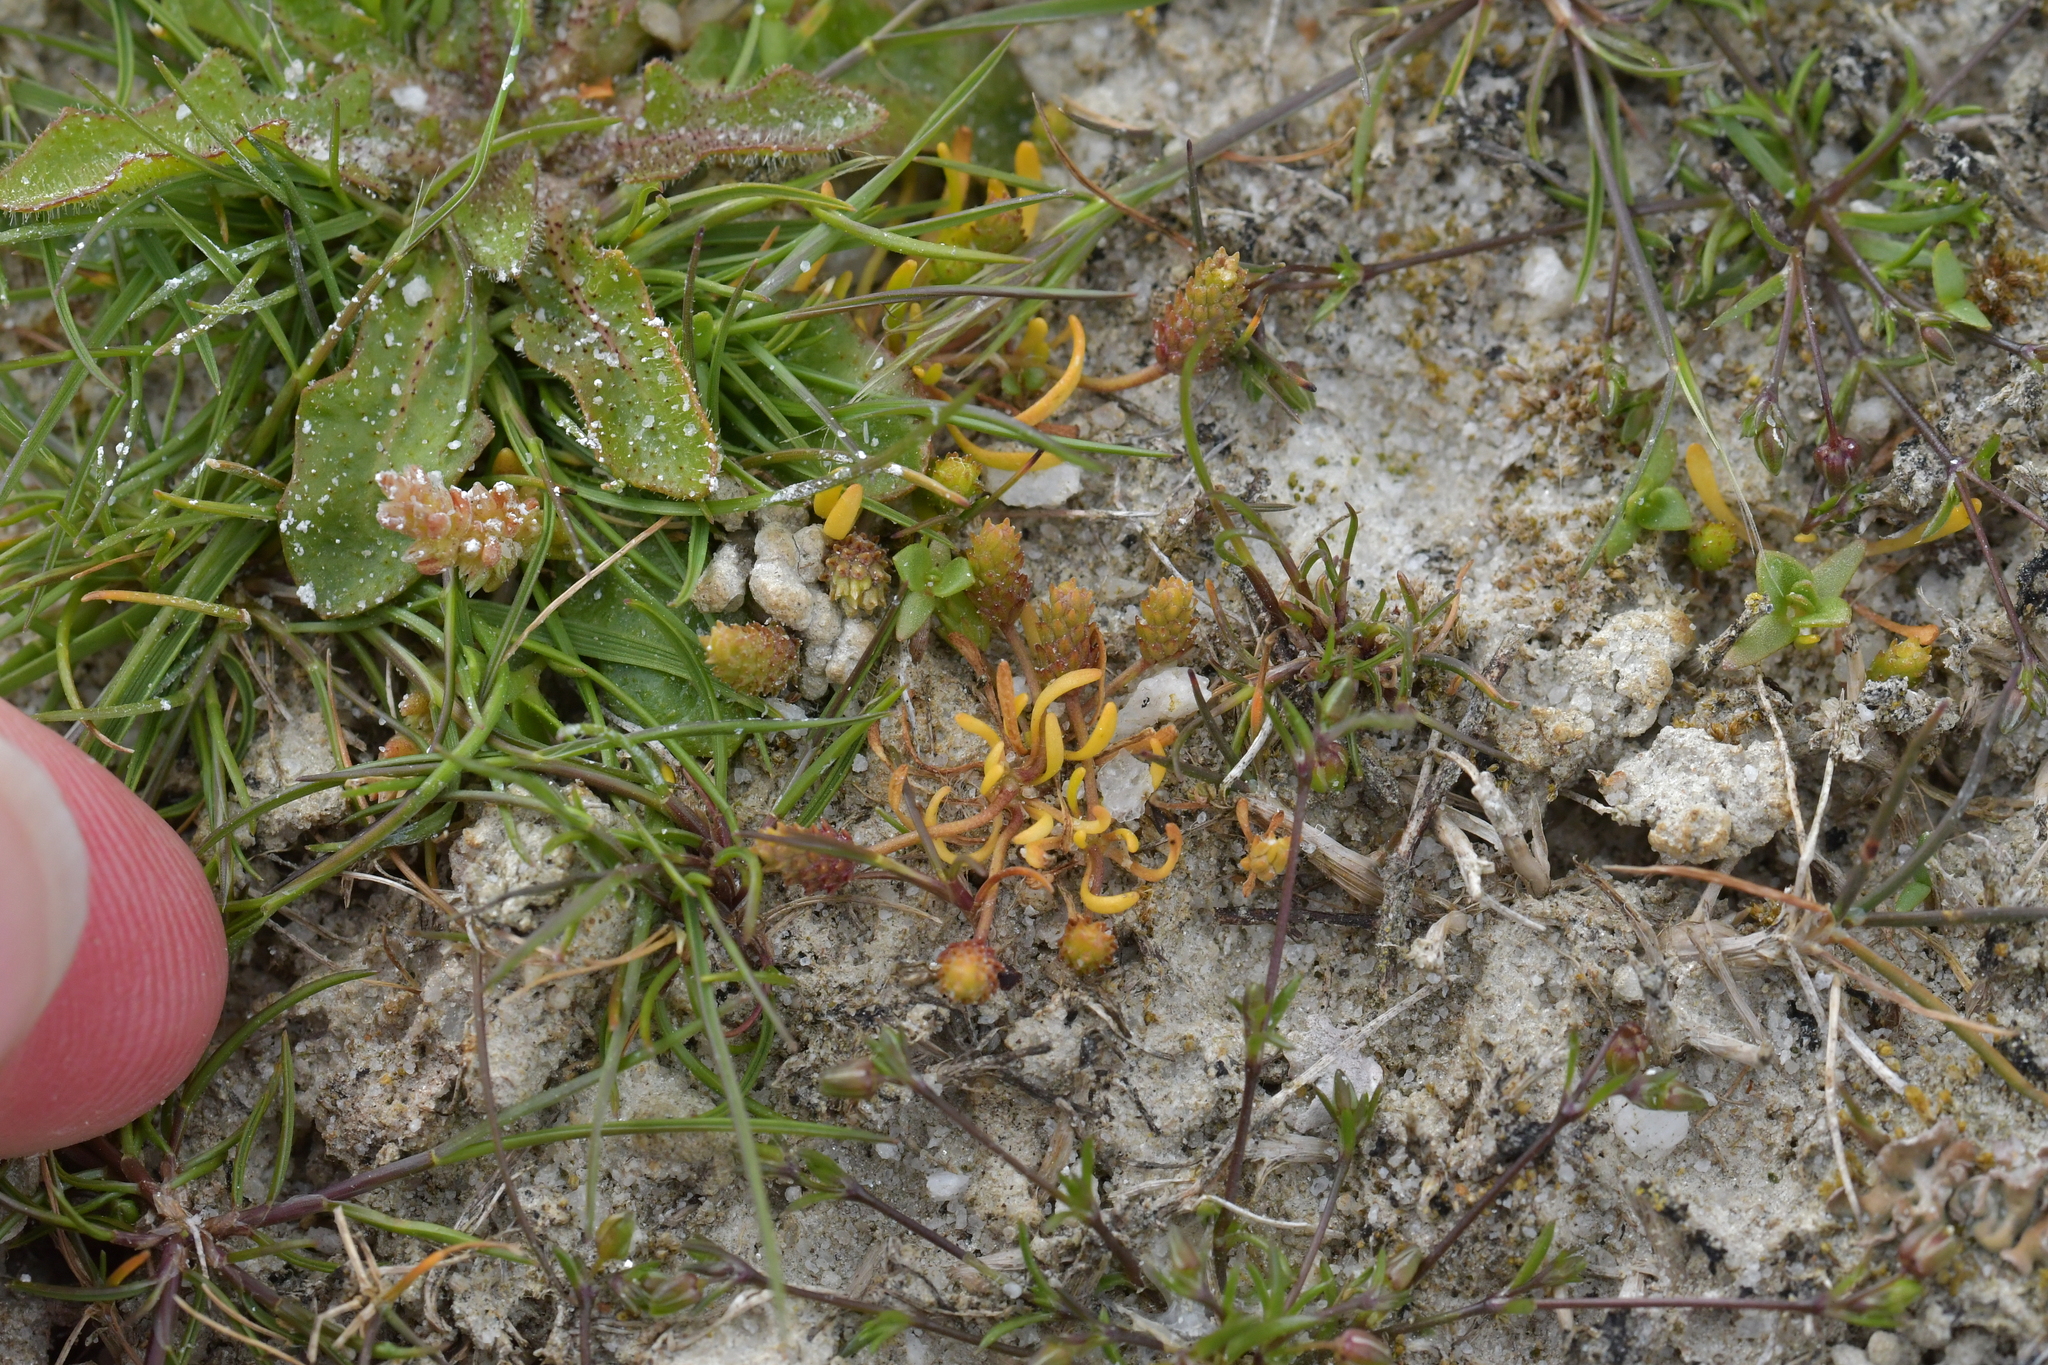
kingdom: Plantae
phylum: Tracheophyta
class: Magnoliopsida
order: Ranunculales
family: Ranunculaceae
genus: Myosurus
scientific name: Myosurus minimus
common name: Mousetail
